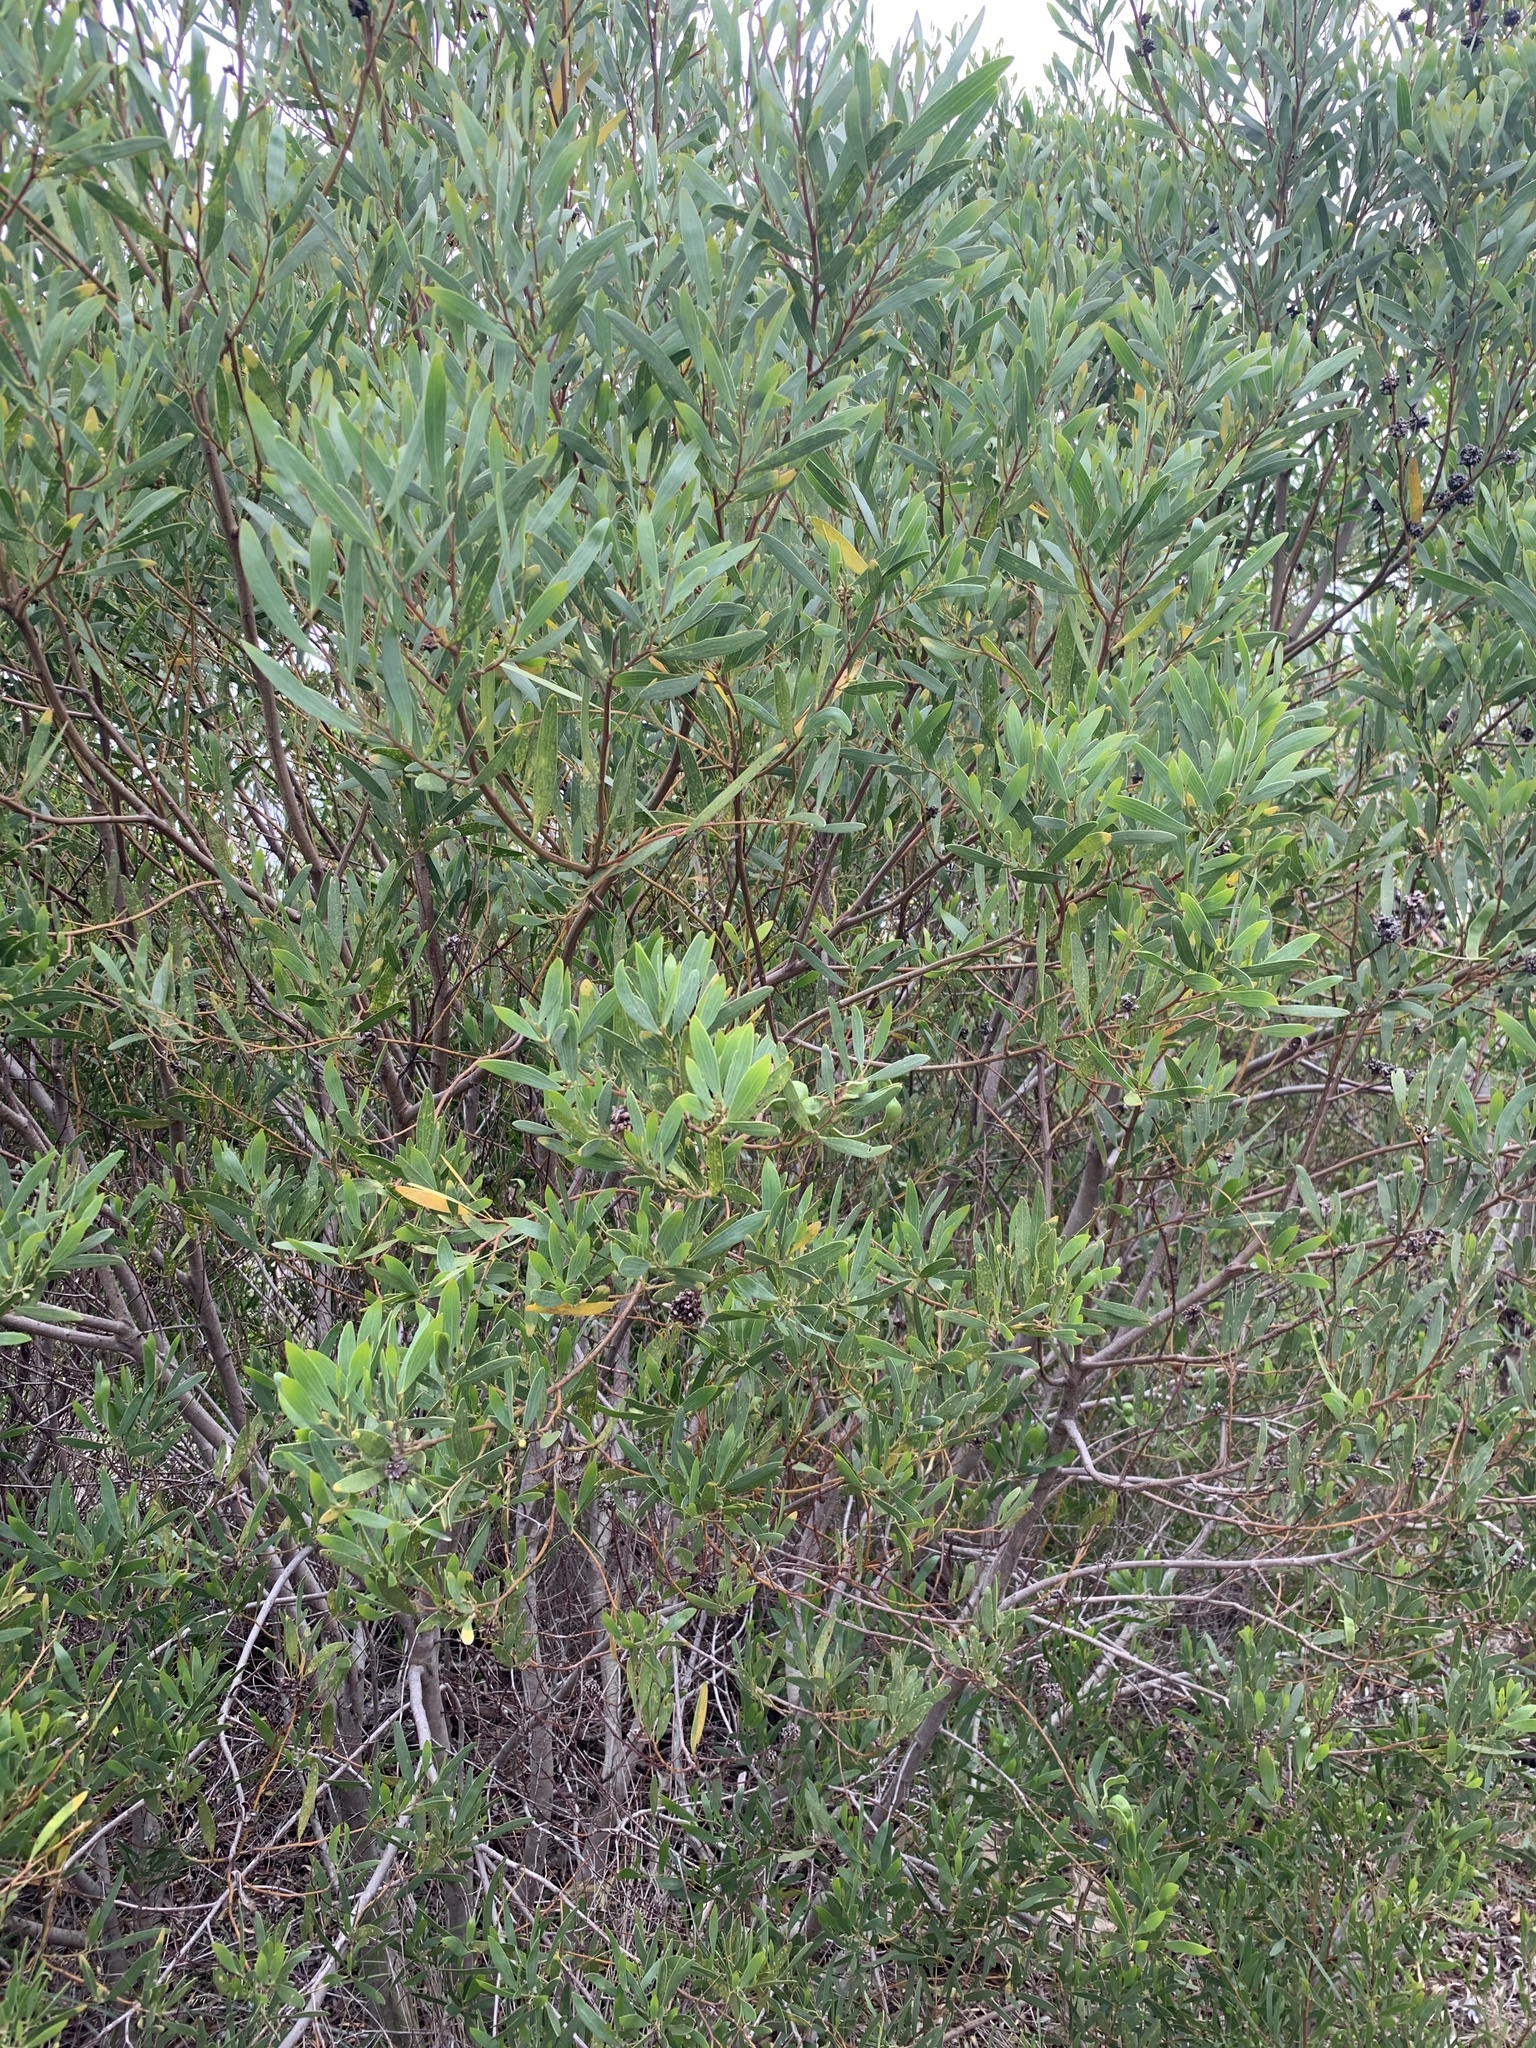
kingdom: Plantae
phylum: Tracheophyta
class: Magnoliopsida
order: Fabales
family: Fabaceae
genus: Acacia
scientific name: Acacia cyclops
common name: Coastal wattle
